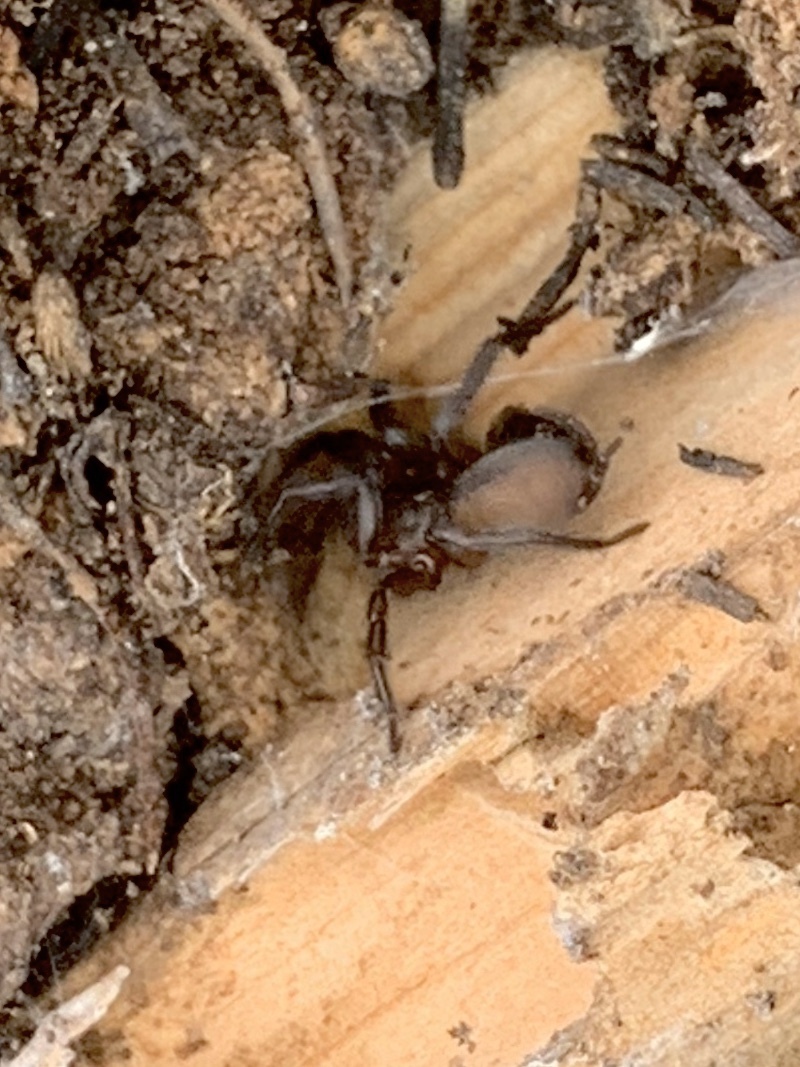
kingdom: Animalia
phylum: Arthropoda
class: Arachnida
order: Araneae
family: Euagridae
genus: Euagrus
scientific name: Euagrus chisoseus
